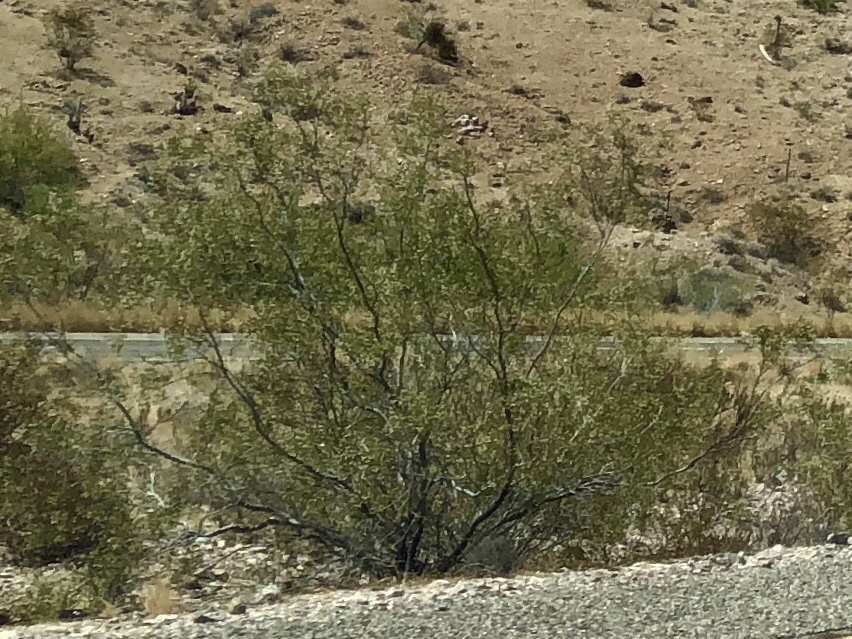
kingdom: Plantae
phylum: Tracheophyta
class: Magnoliopsida
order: Zygophyllales
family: Zygophyllaceae
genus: Larrea
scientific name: Larrea tridentata
